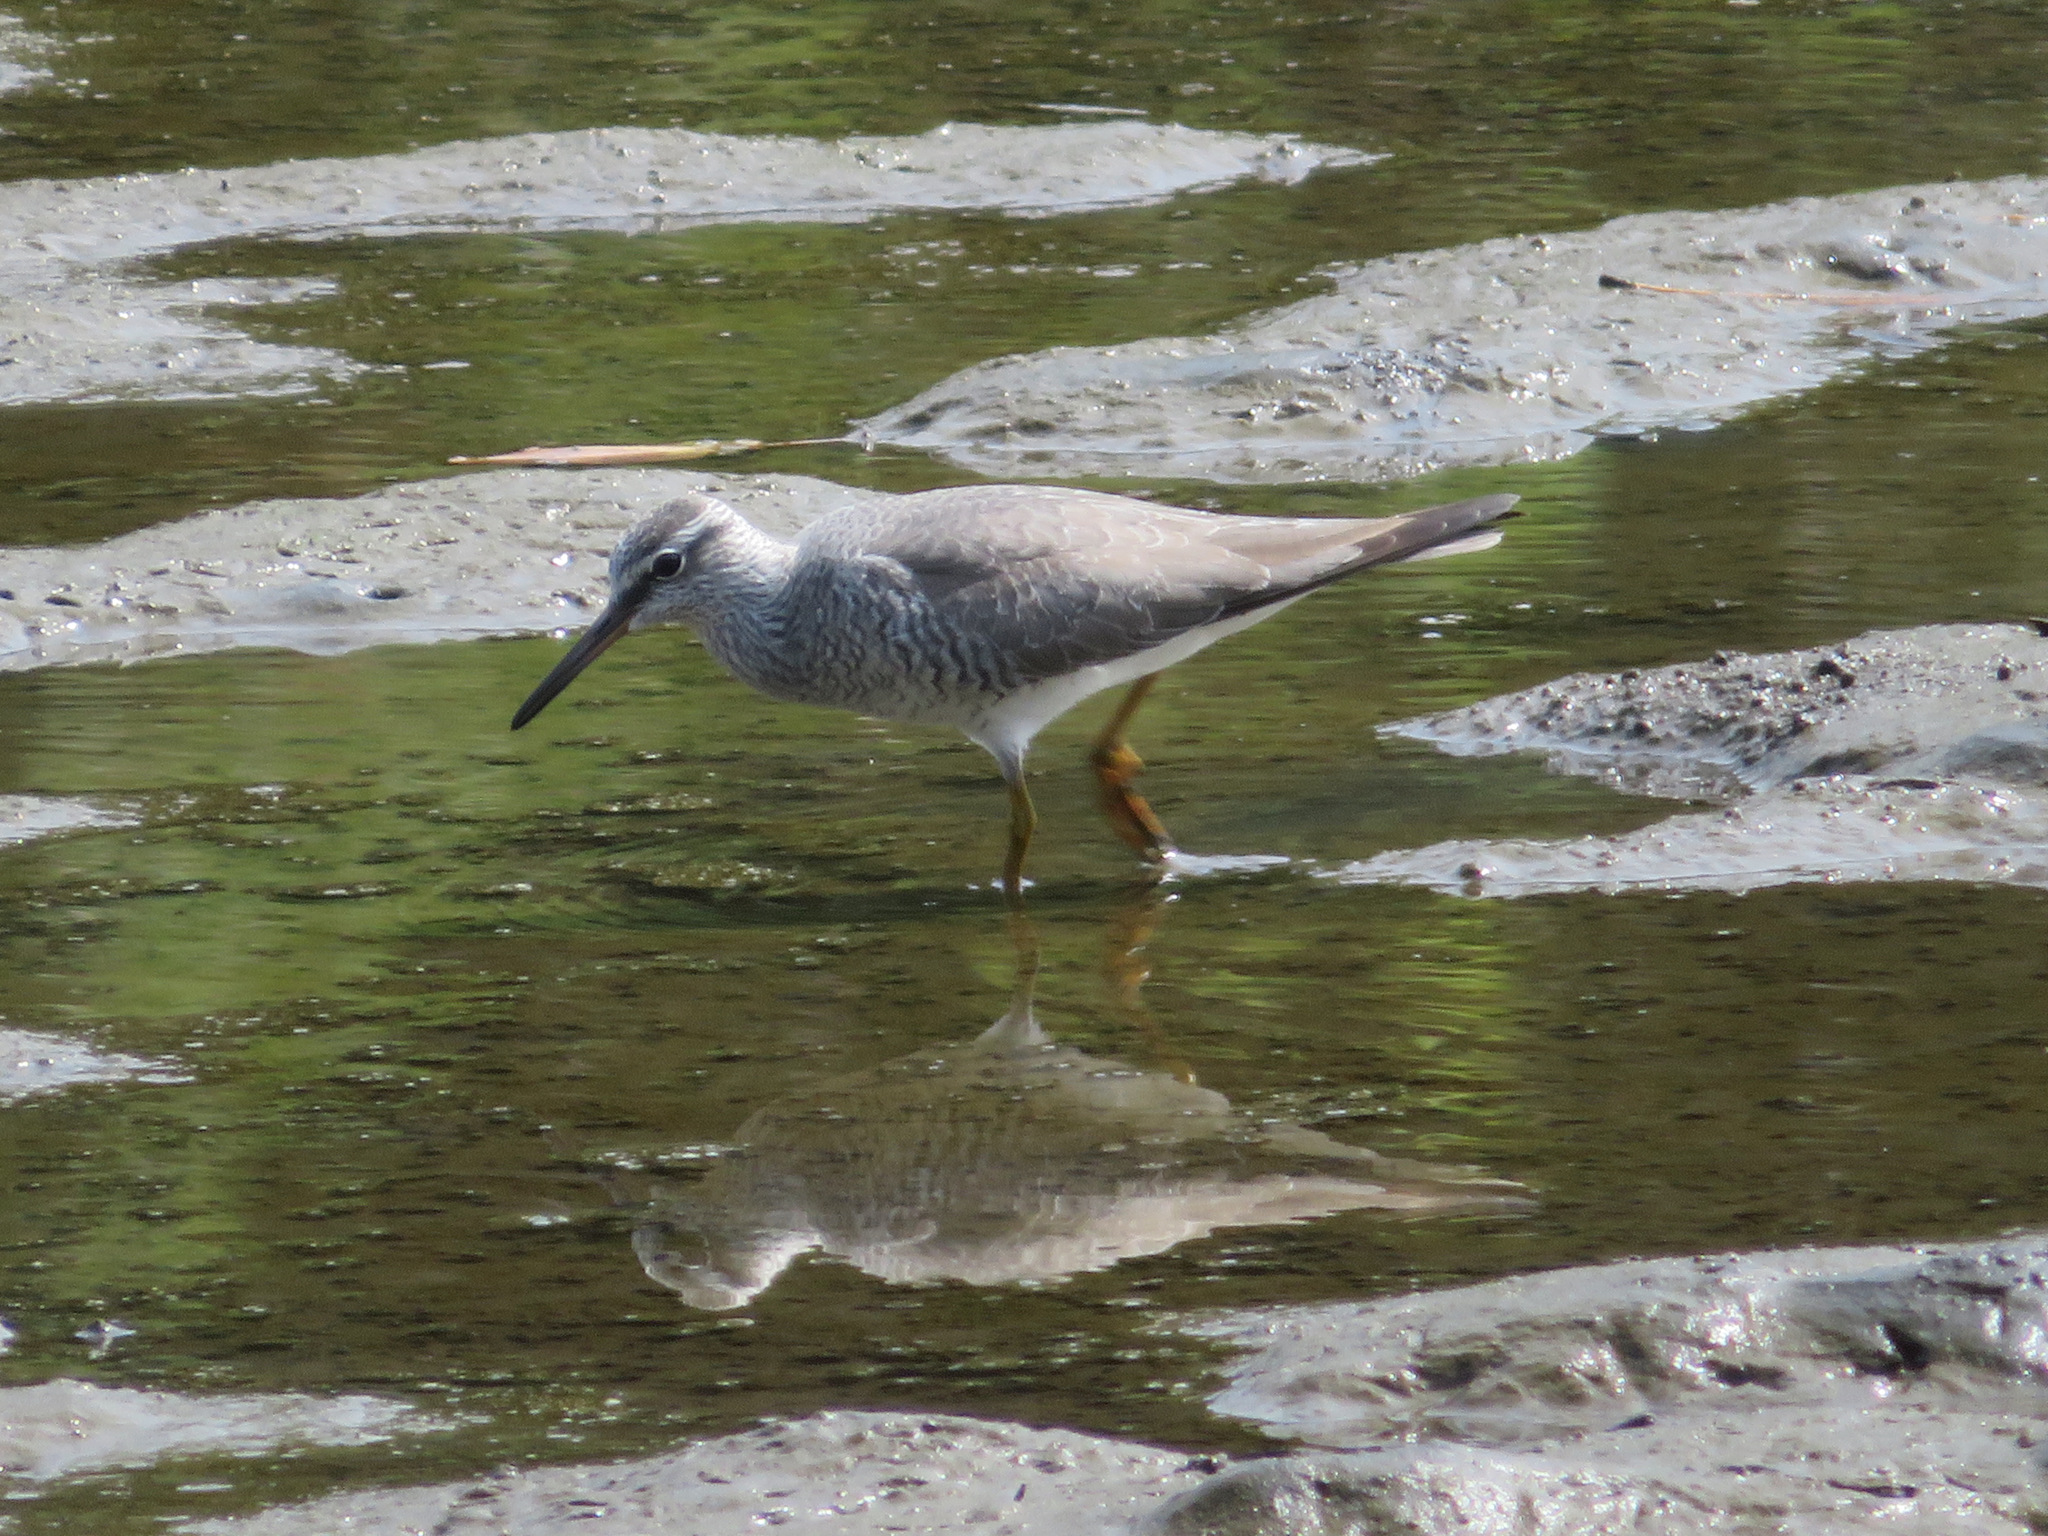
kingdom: Animalia
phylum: Chordata
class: Aves
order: Charadriiformes
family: Scolopacidae
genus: Tringa
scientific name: Tringa brevipes
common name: Grey-tailed tattler
